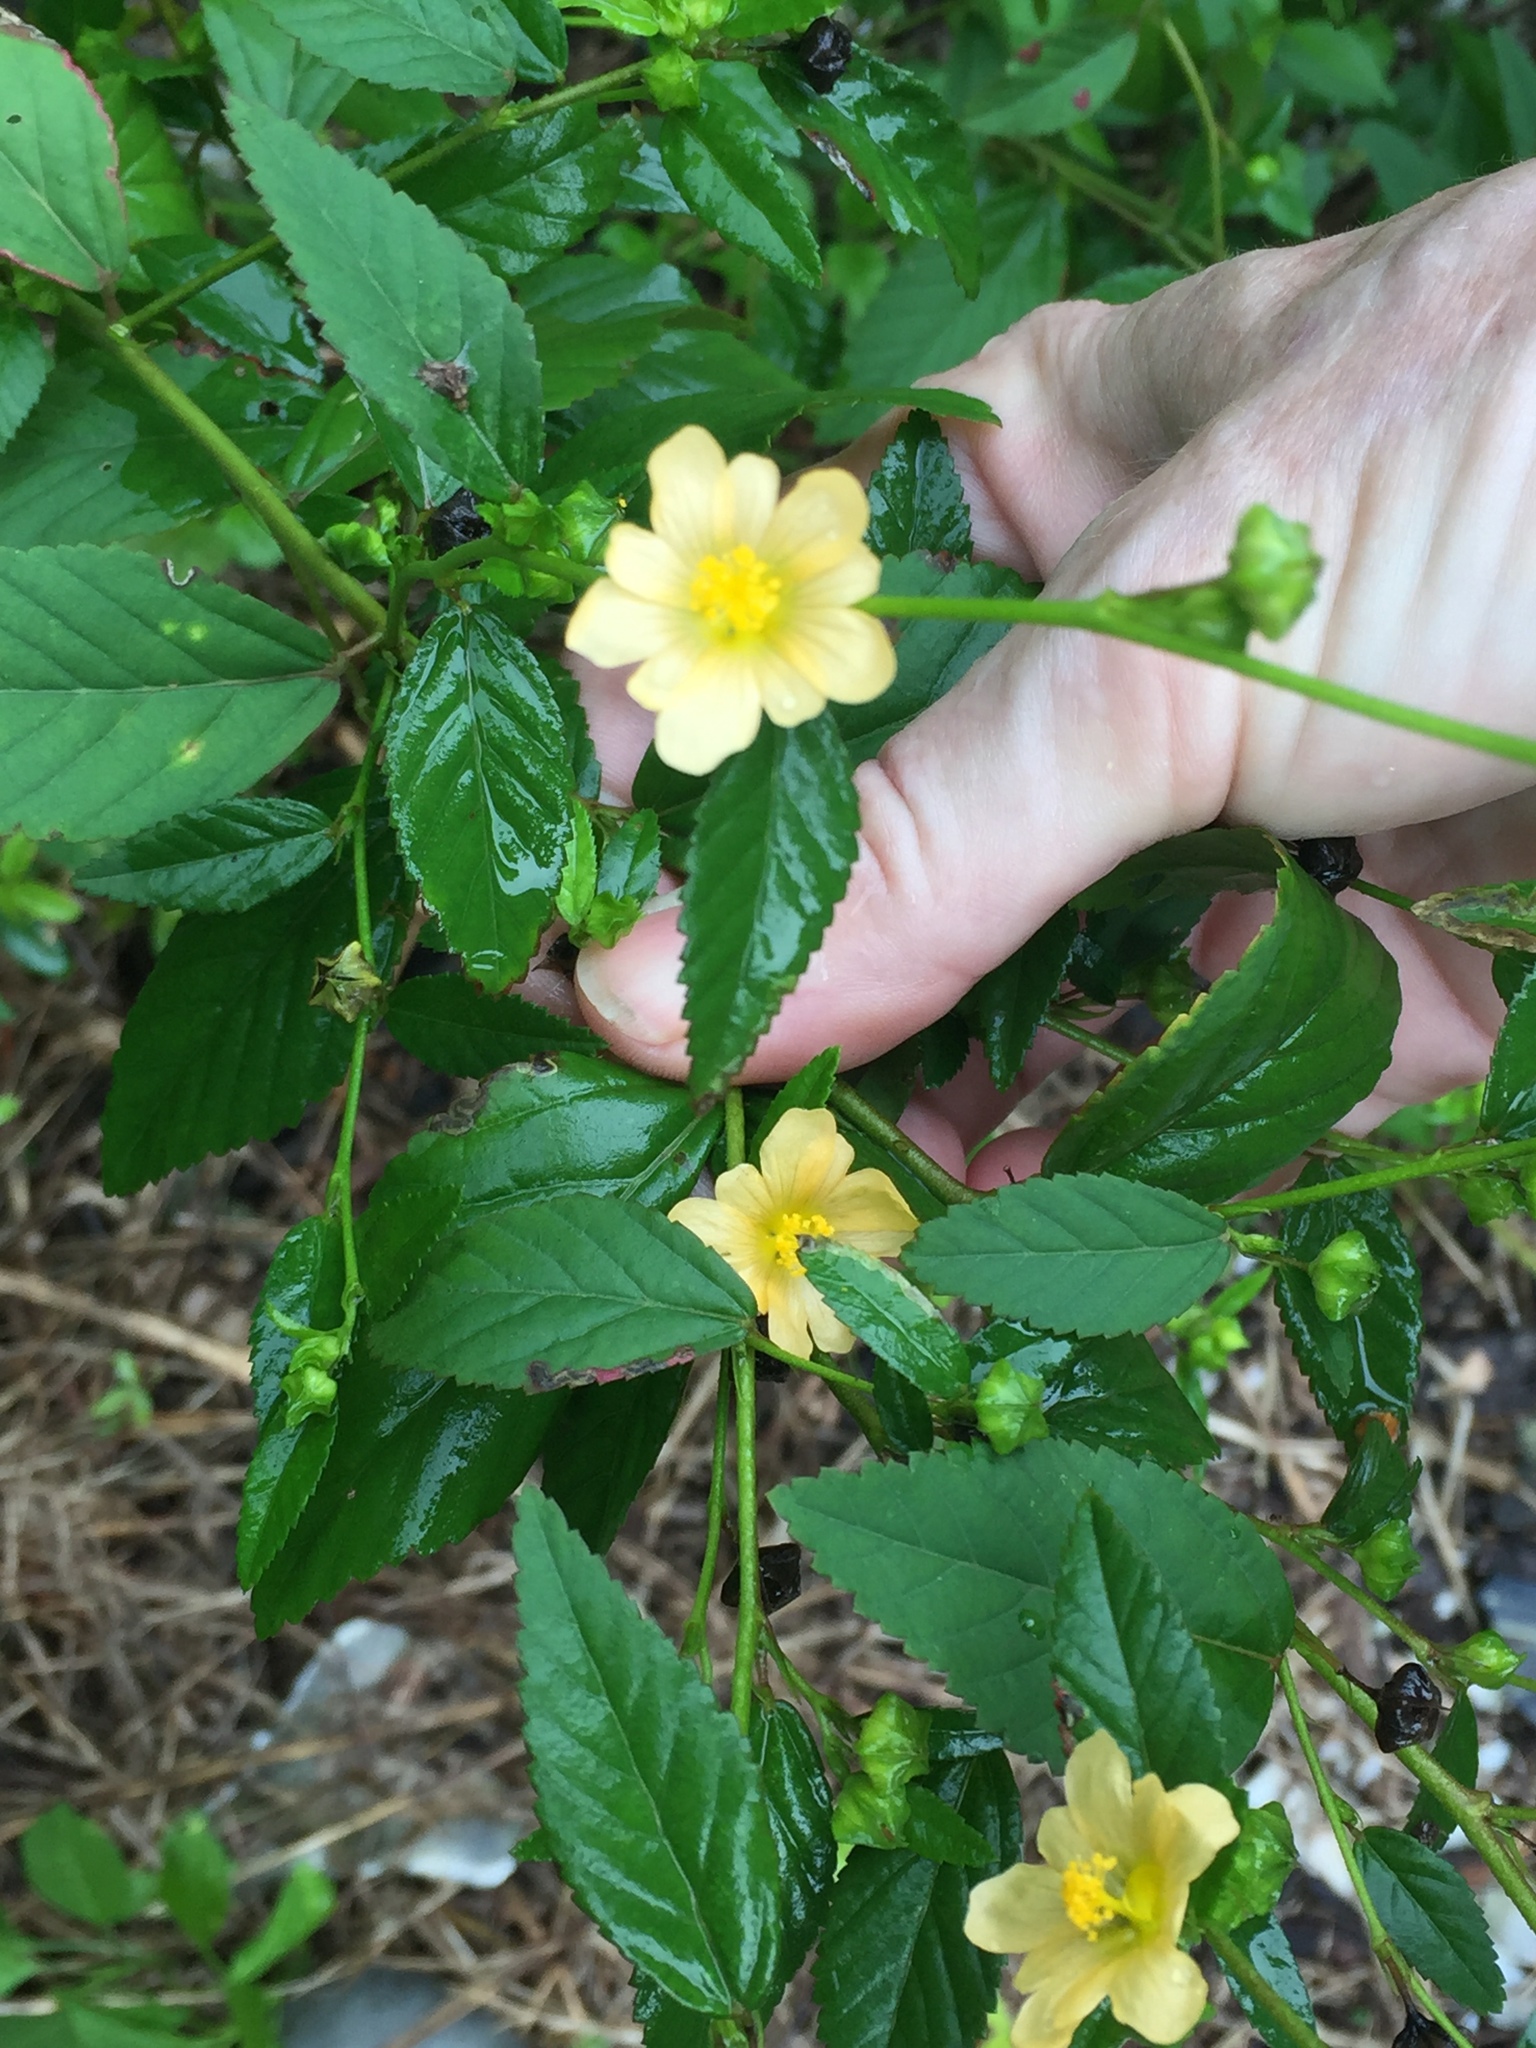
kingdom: Plantae
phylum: Tracheophyta
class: Magnoliopsida
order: Malvales
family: Malvaceae
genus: Sida
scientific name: Sida ulmifolia
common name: Broom weed
